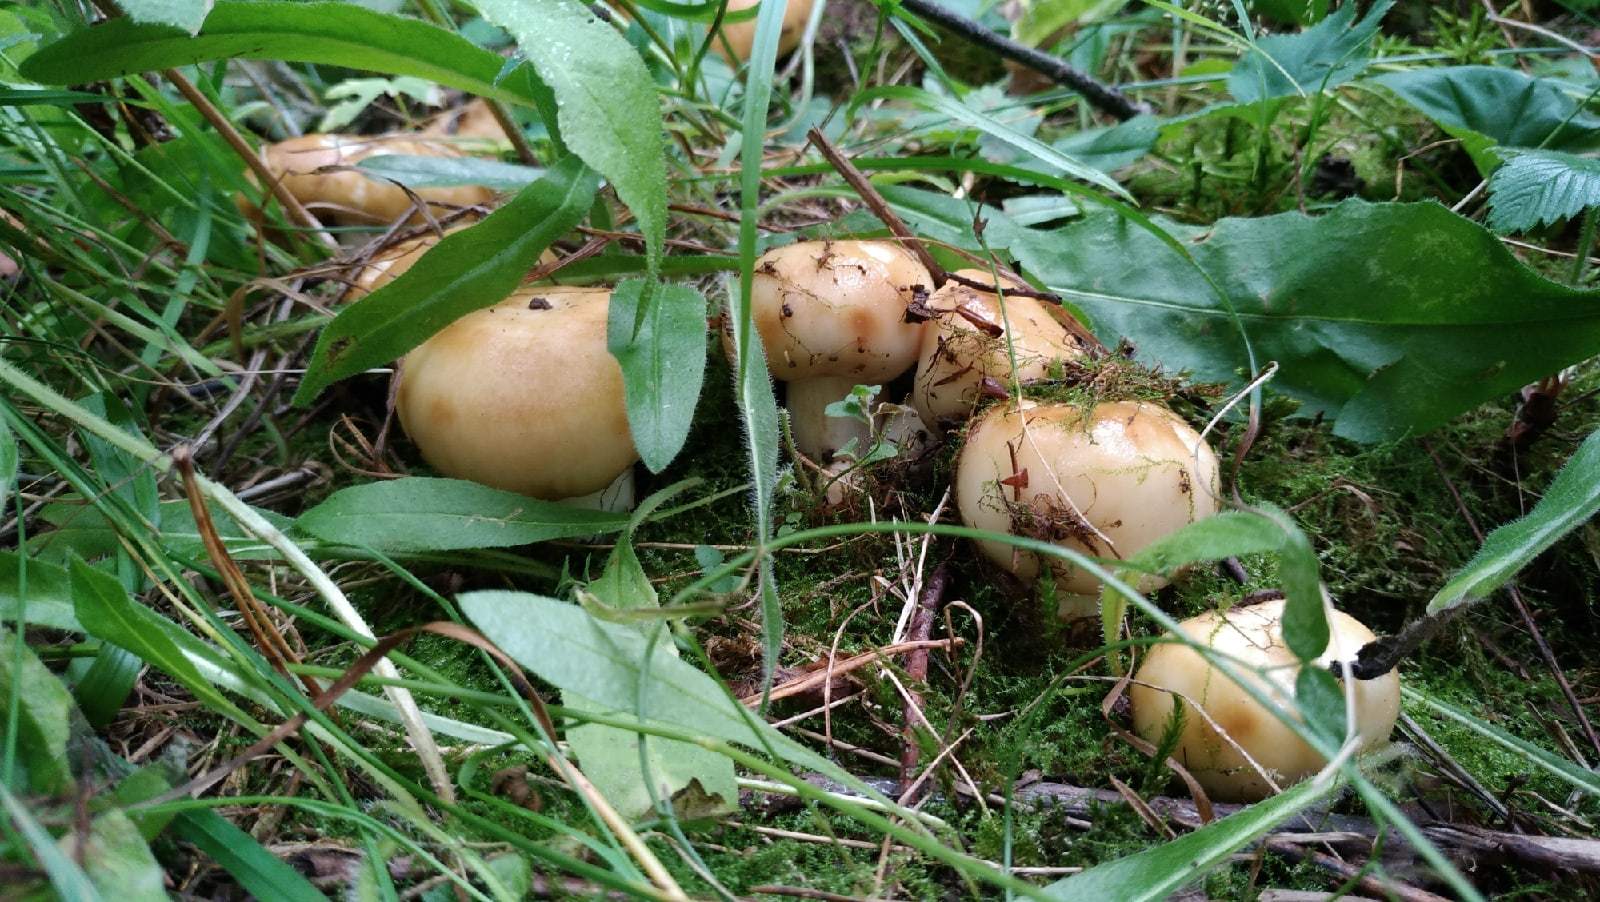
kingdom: Fungi
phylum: Basidiomycota
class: Agaricomycetes
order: Russulales
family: Russulaceae
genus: Russula
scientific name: Russula foetens
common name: Foetid russula
